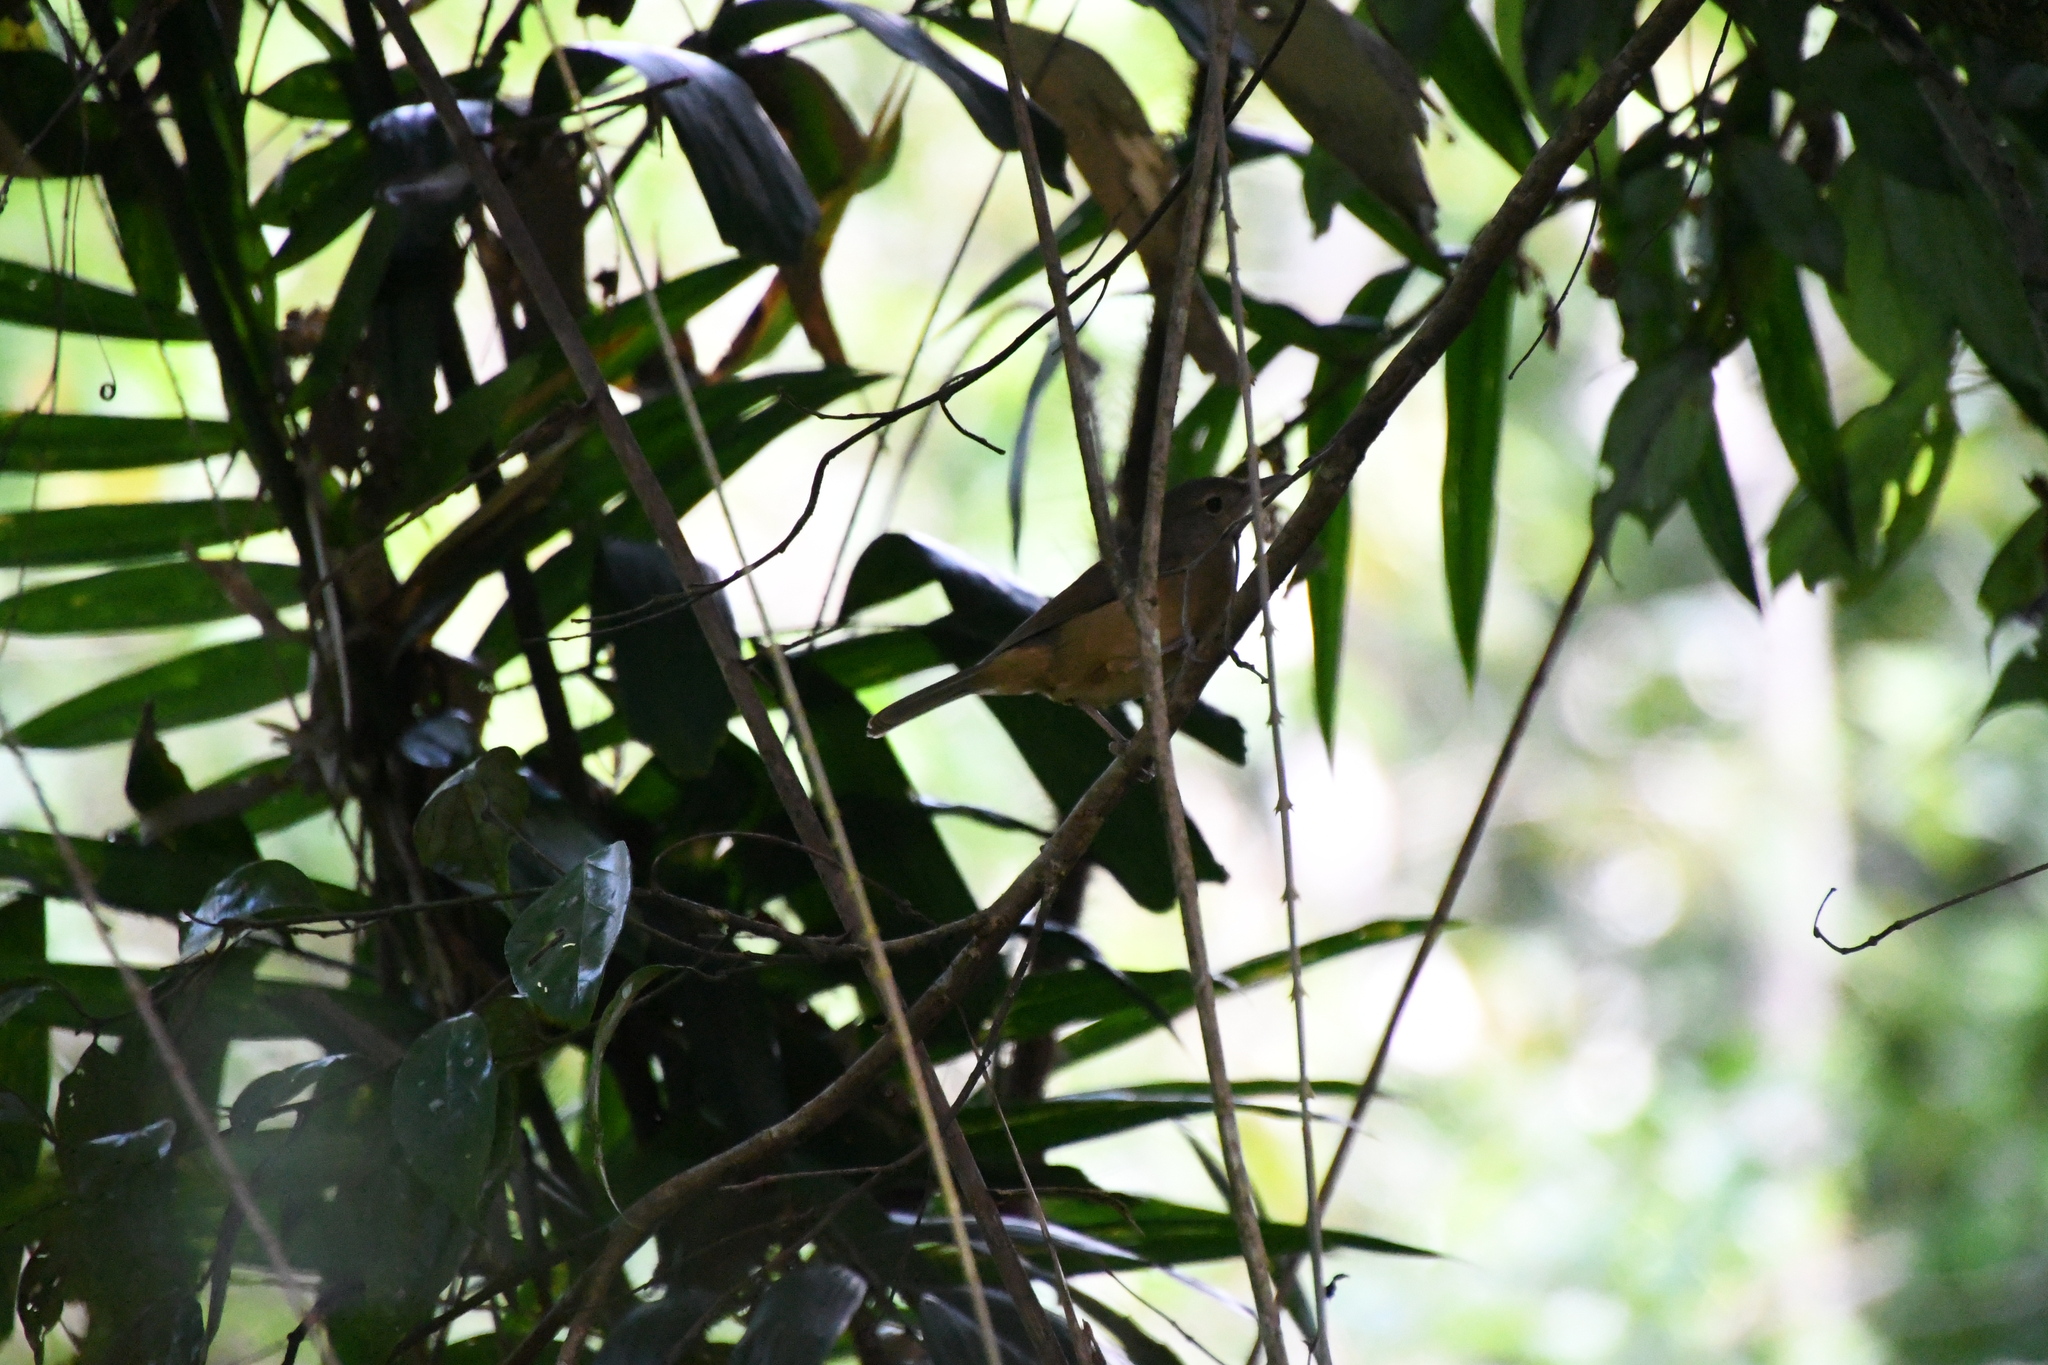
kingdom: Animalia
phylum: Chordata
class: Aves
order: Passeriformes
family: Pachycephalidae
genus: Colluricincla
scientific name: Colluricincla rufogaster
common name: Rufous shrikethrush
